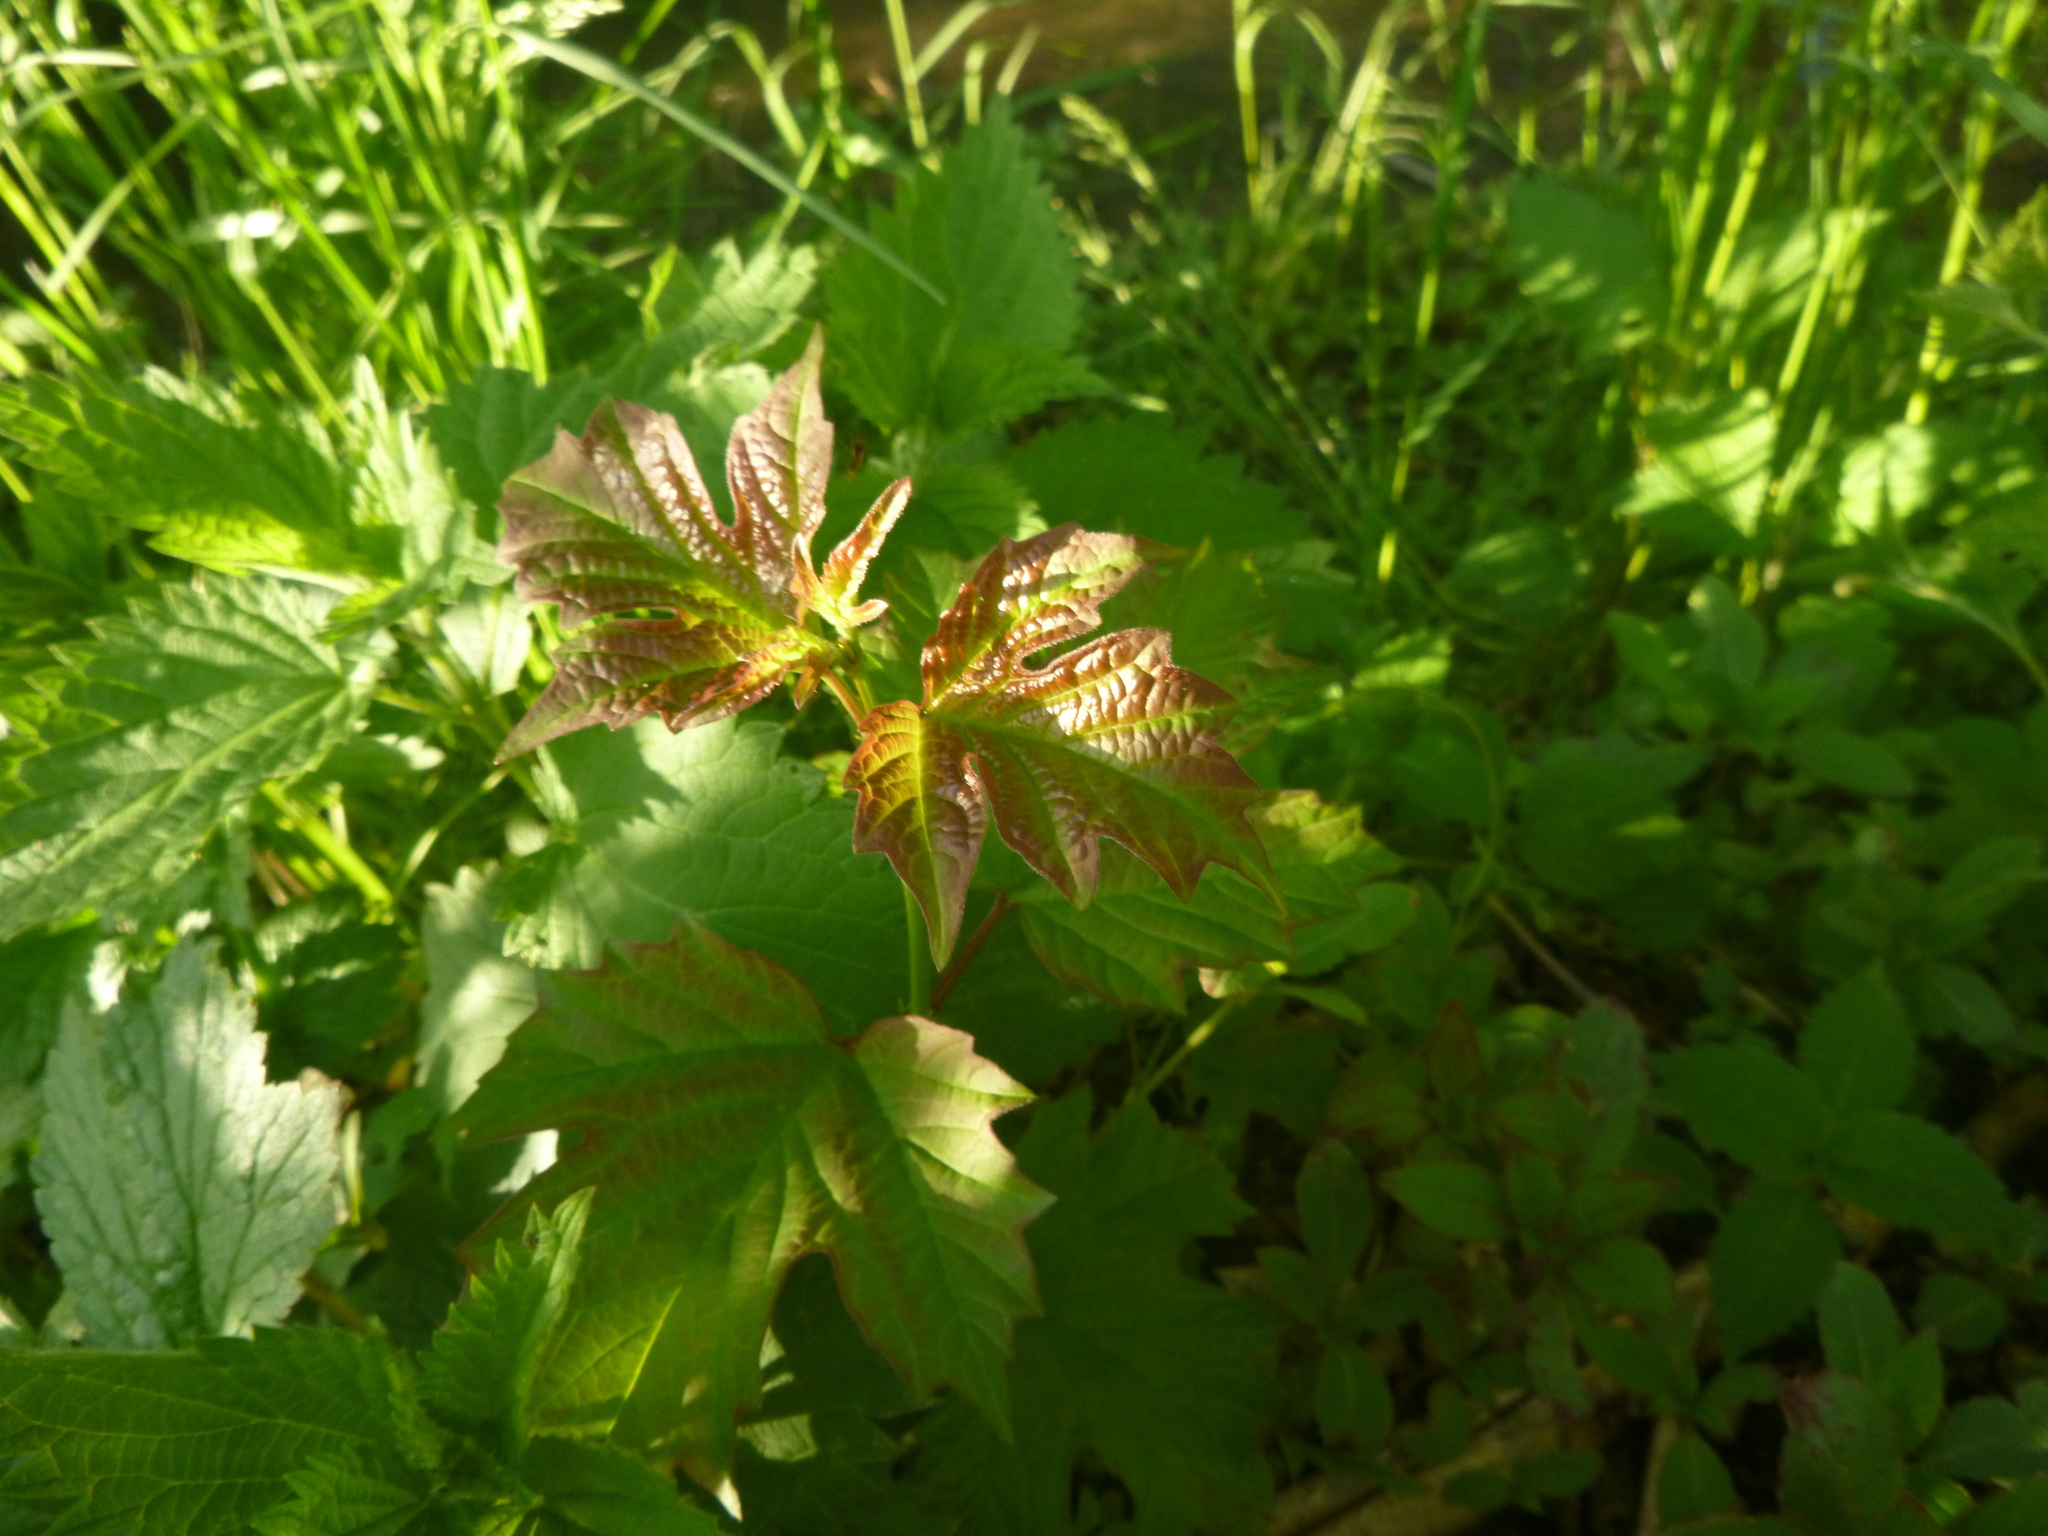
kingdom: Plantae
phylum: Tracheophyta
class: Magnoliopsida
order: Dipsacales
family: Viburnaceae
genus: Viburnum
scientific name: Viburnum opulus
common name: Guelder-rose
